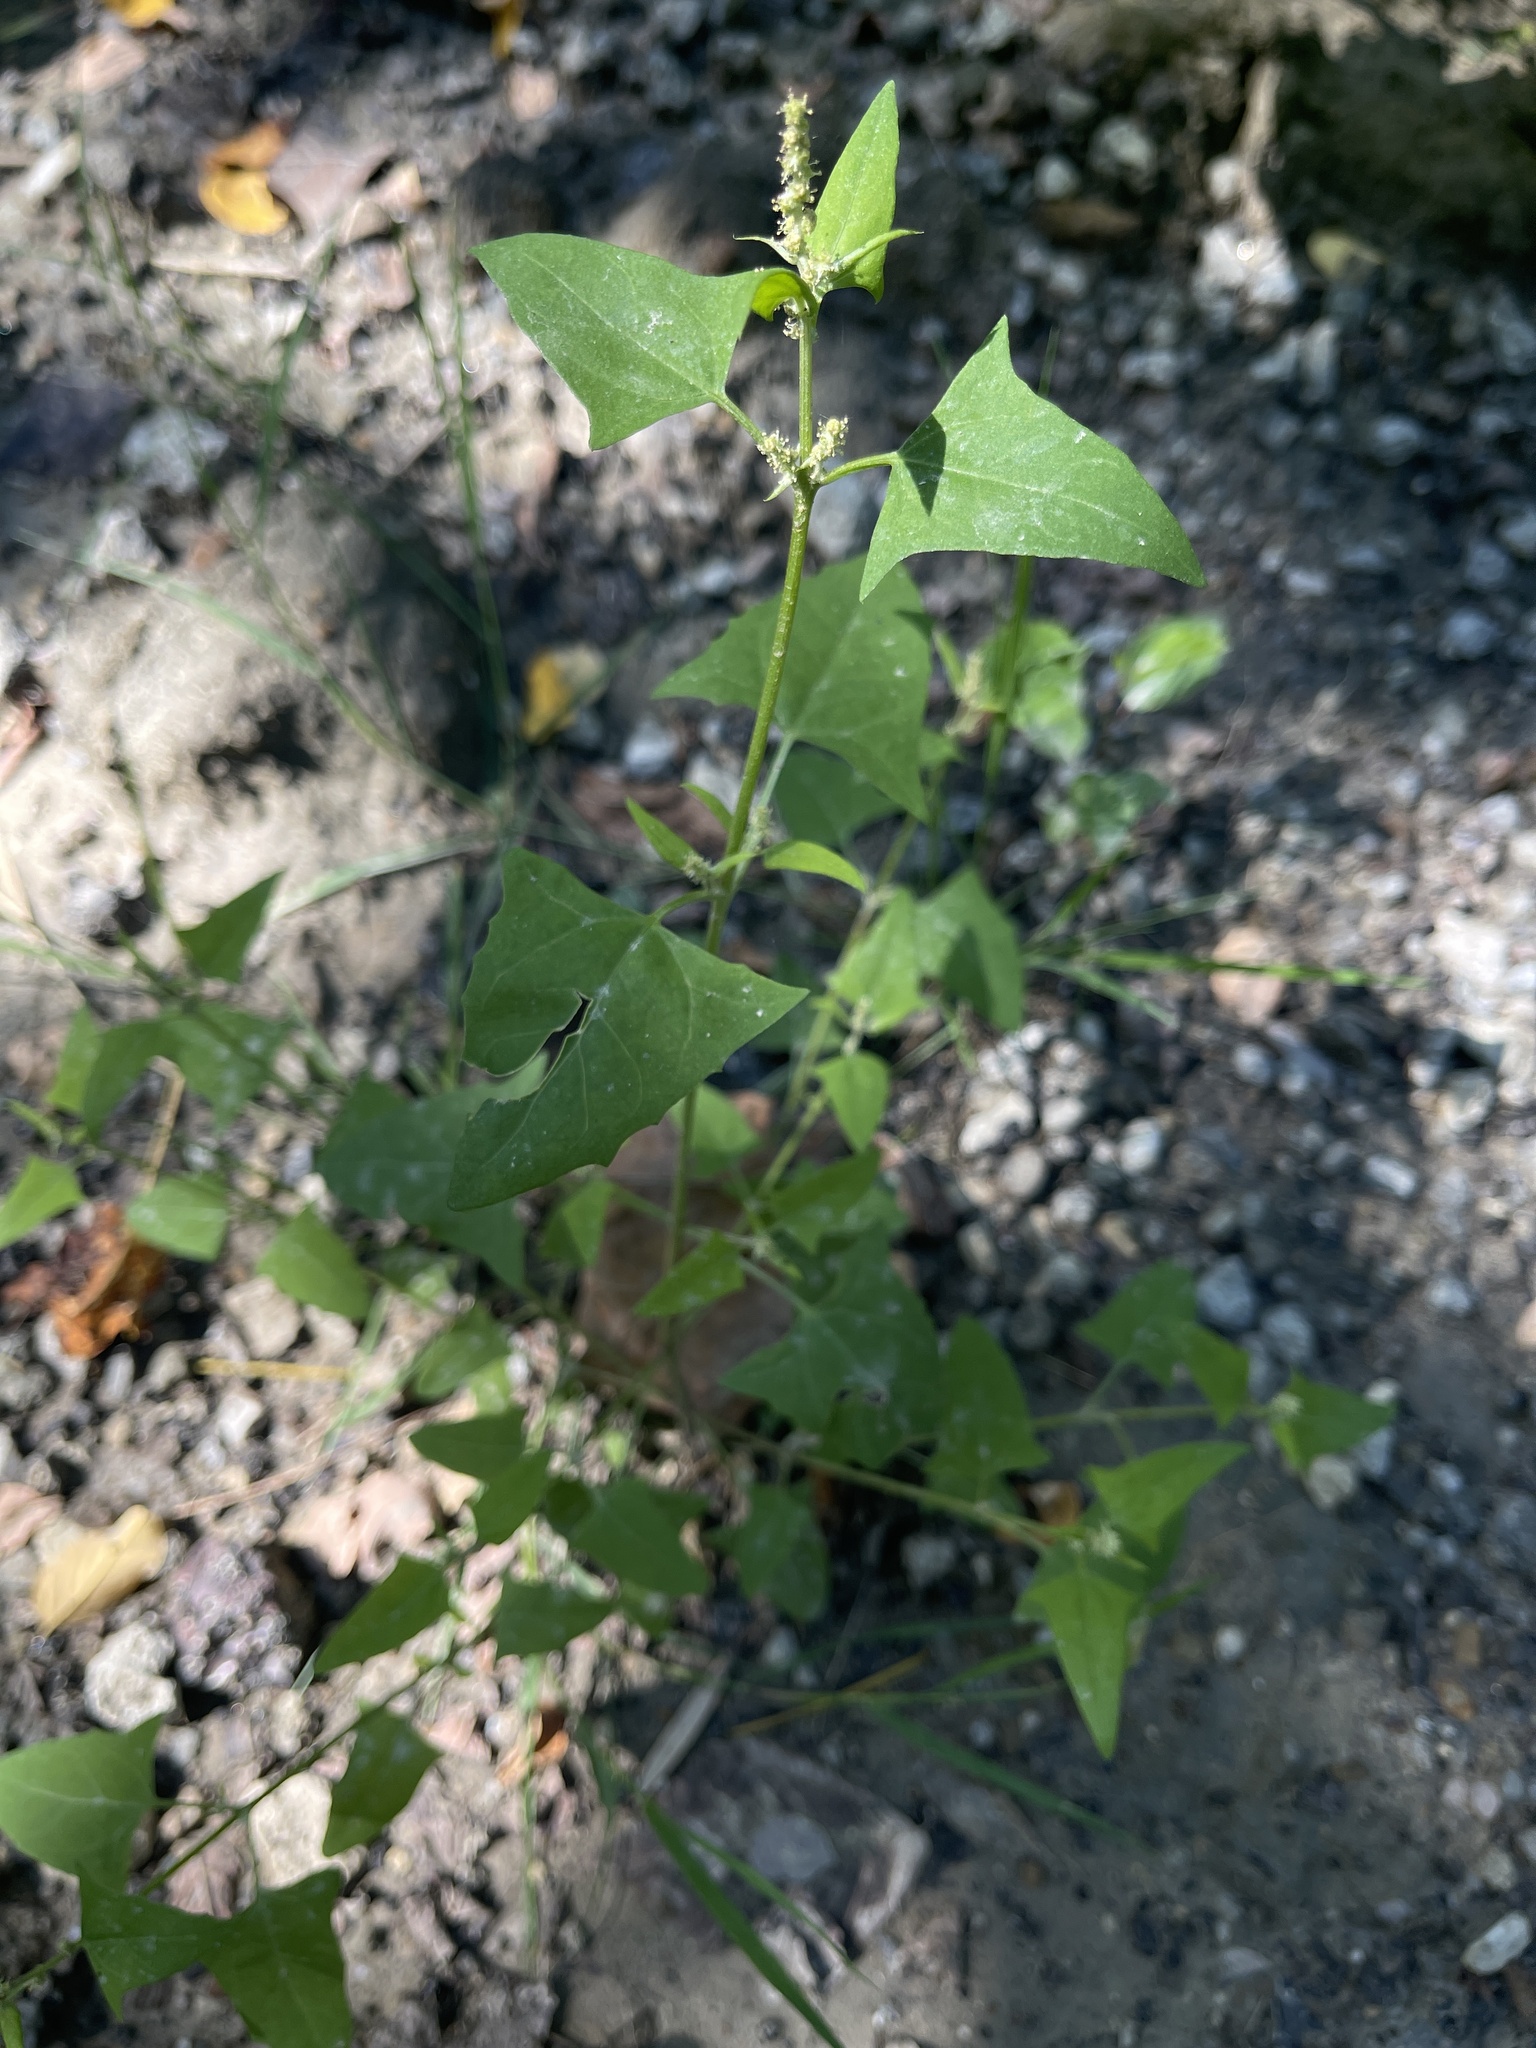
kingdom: Plantae
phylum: Tracheophyta
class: Magnoliopsida
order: Caryophyllales
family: Amaranthaceae
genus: Atriplex
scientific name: Atriplex prostrata
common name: Spear-leaved orache
